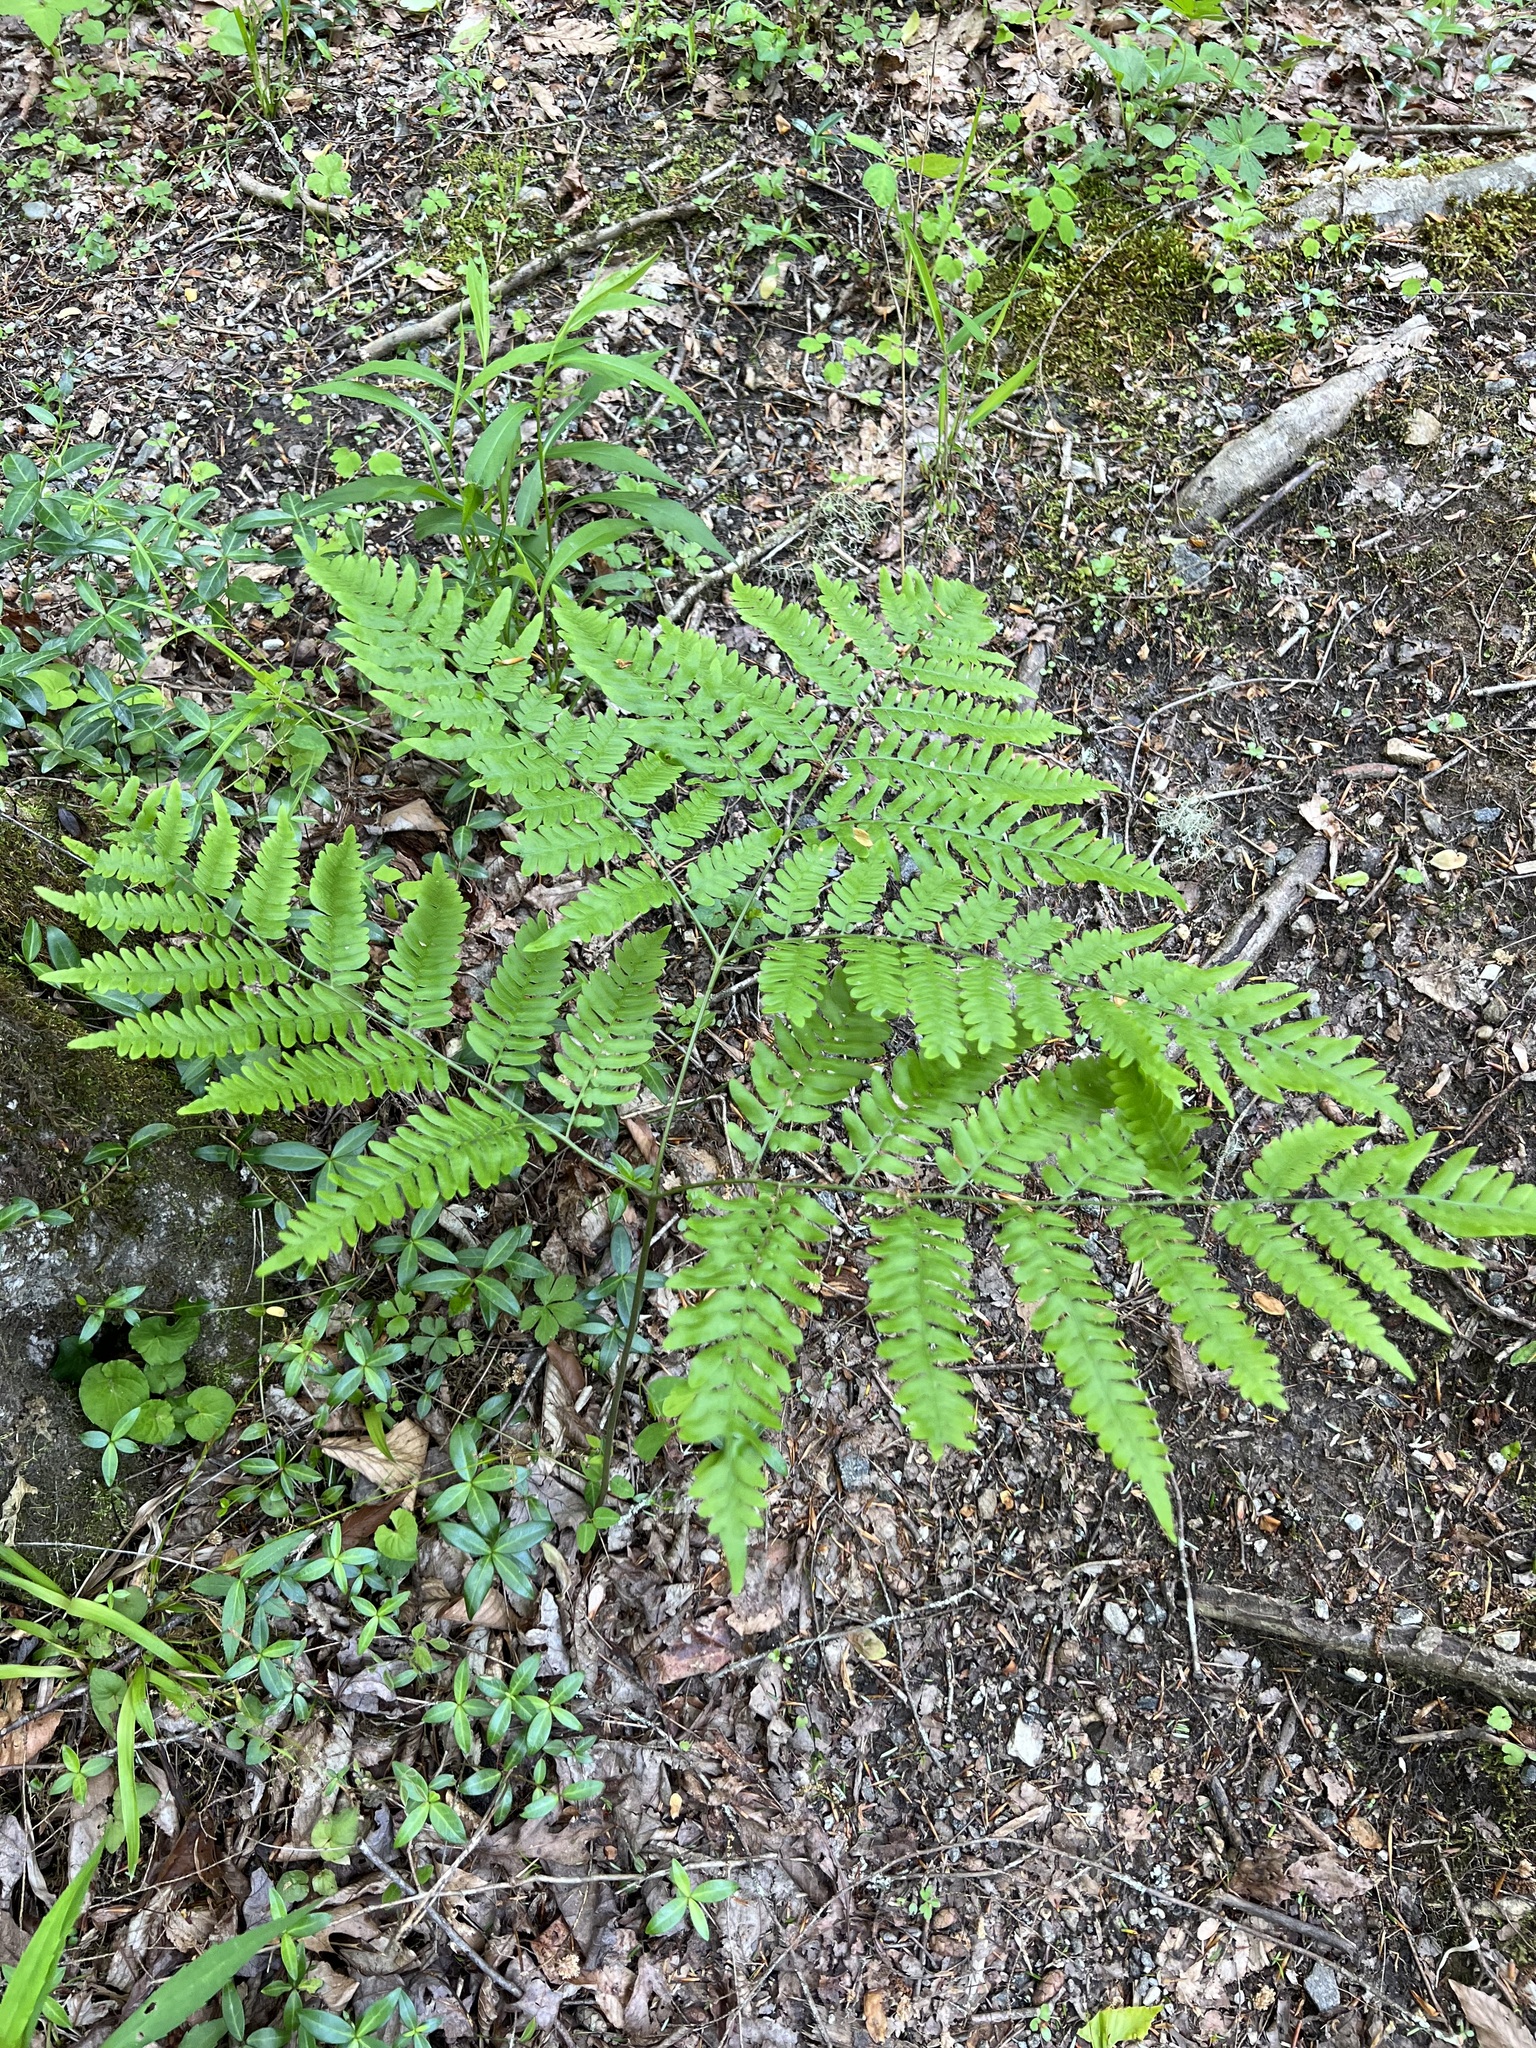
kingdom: Plantae
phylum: Tracheophyta
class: Polypodiopsida
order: Polypodiales
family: Dennstaedtiaceae
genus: Pteridium
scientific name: Pteridium aquilinum
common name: Bracken
